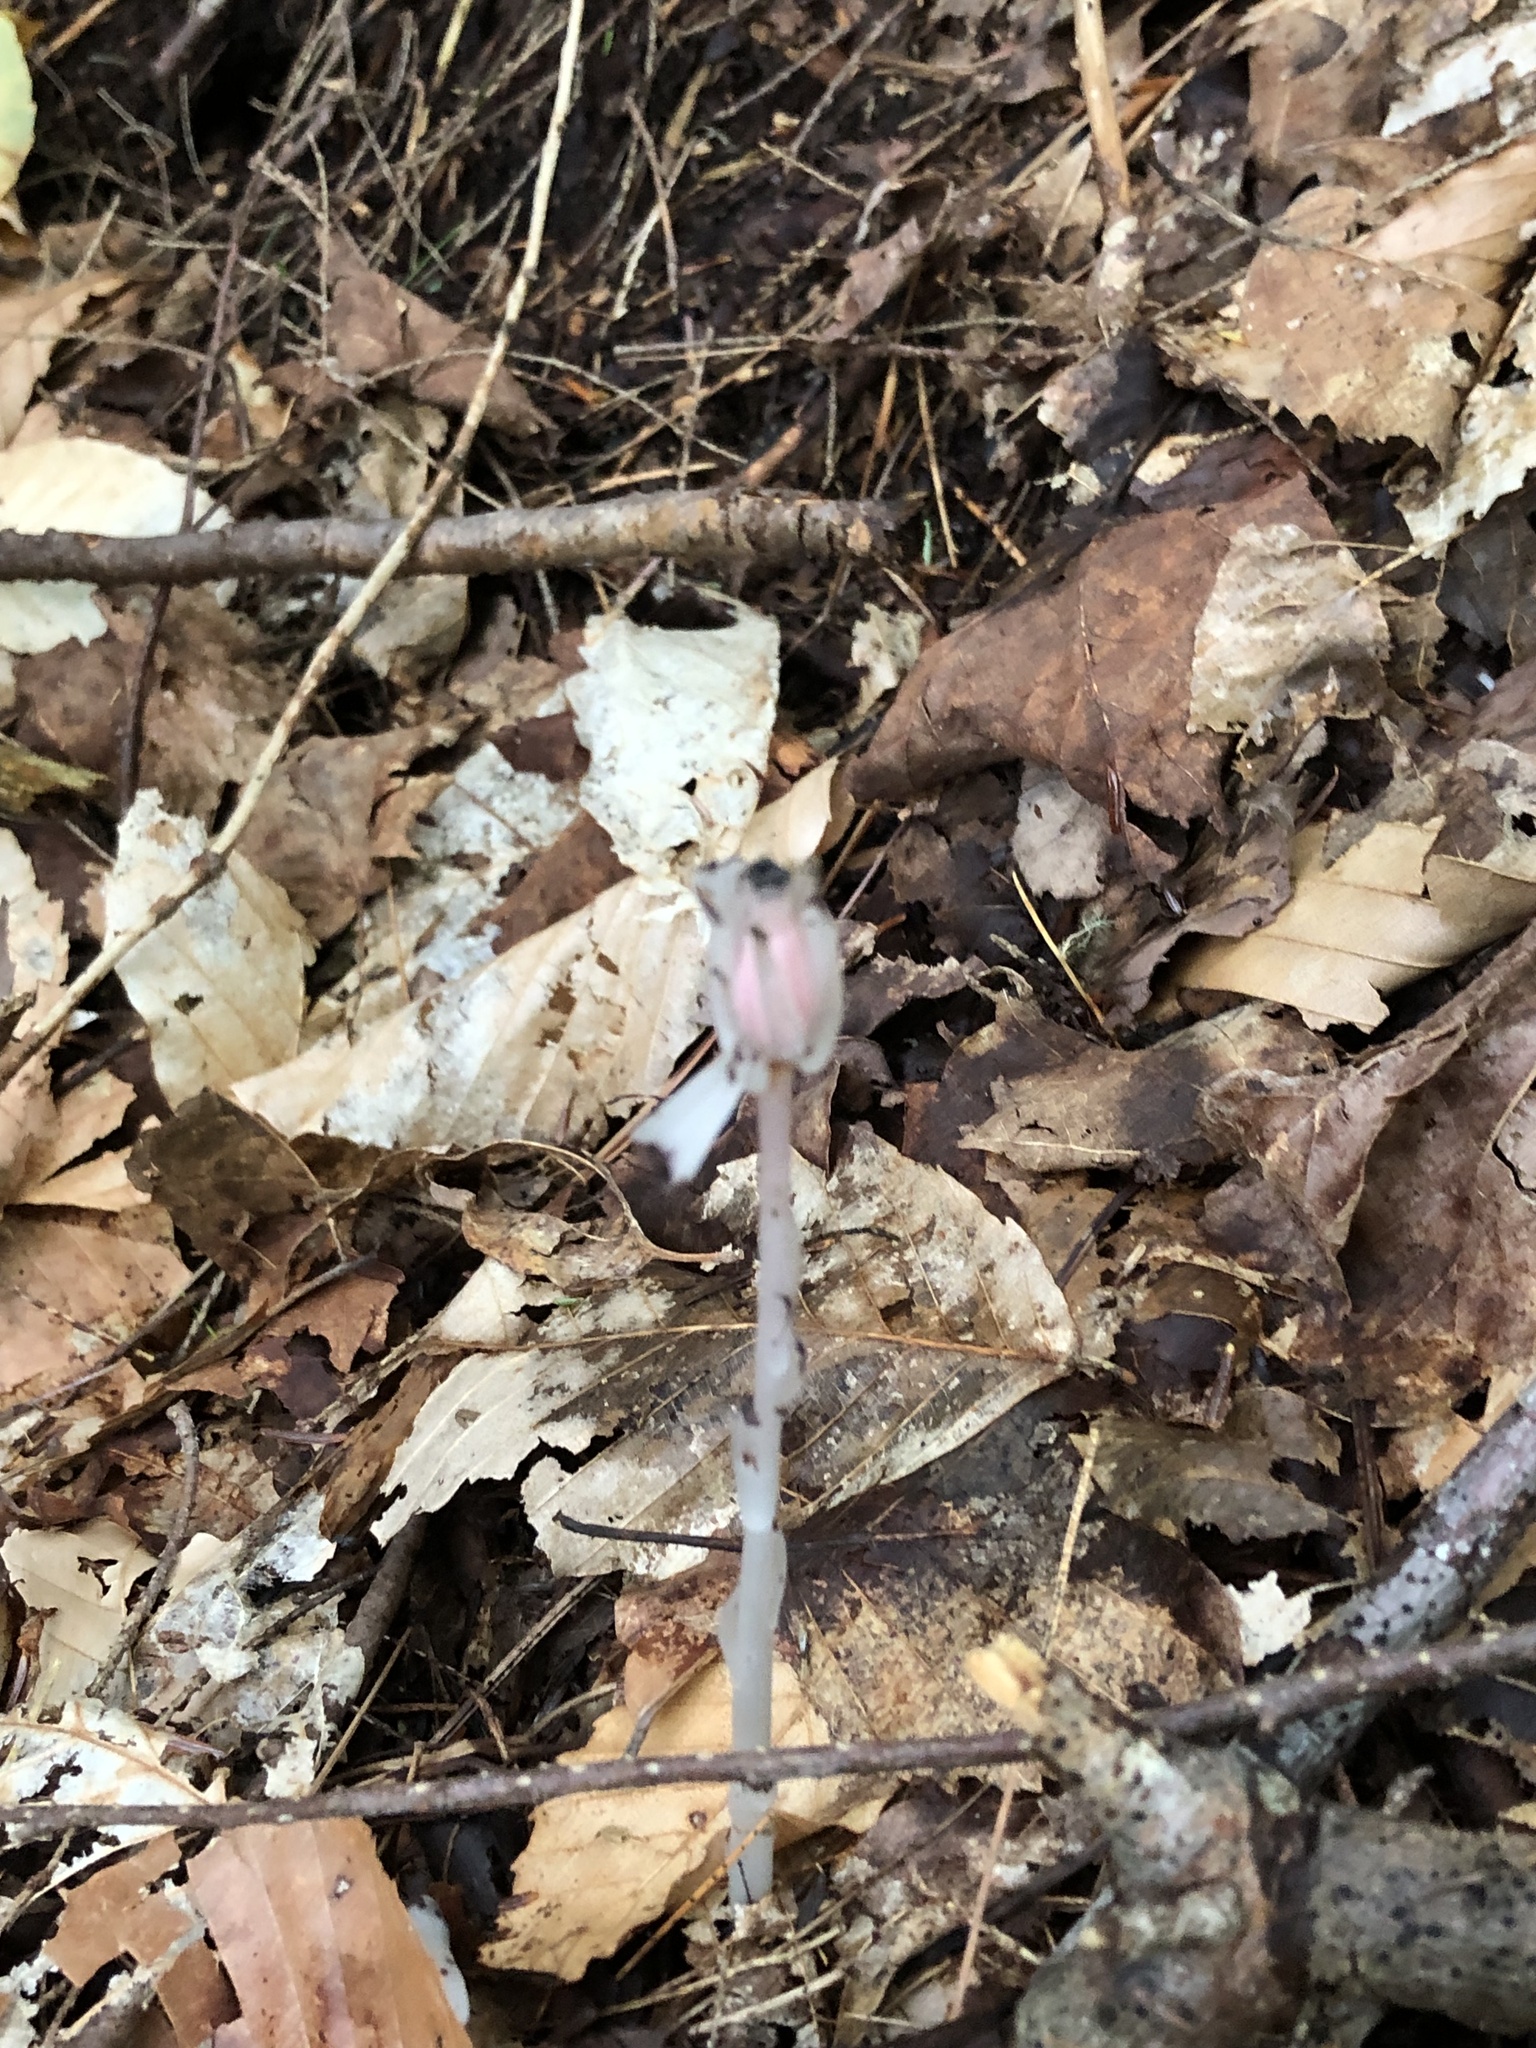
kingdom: Plantae
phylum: Tracheophyta
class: Magnoliopsida
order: Ericales
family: Ericaceae
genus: Monotropa
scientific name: Monotropa uniflora
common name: Convulsion root
